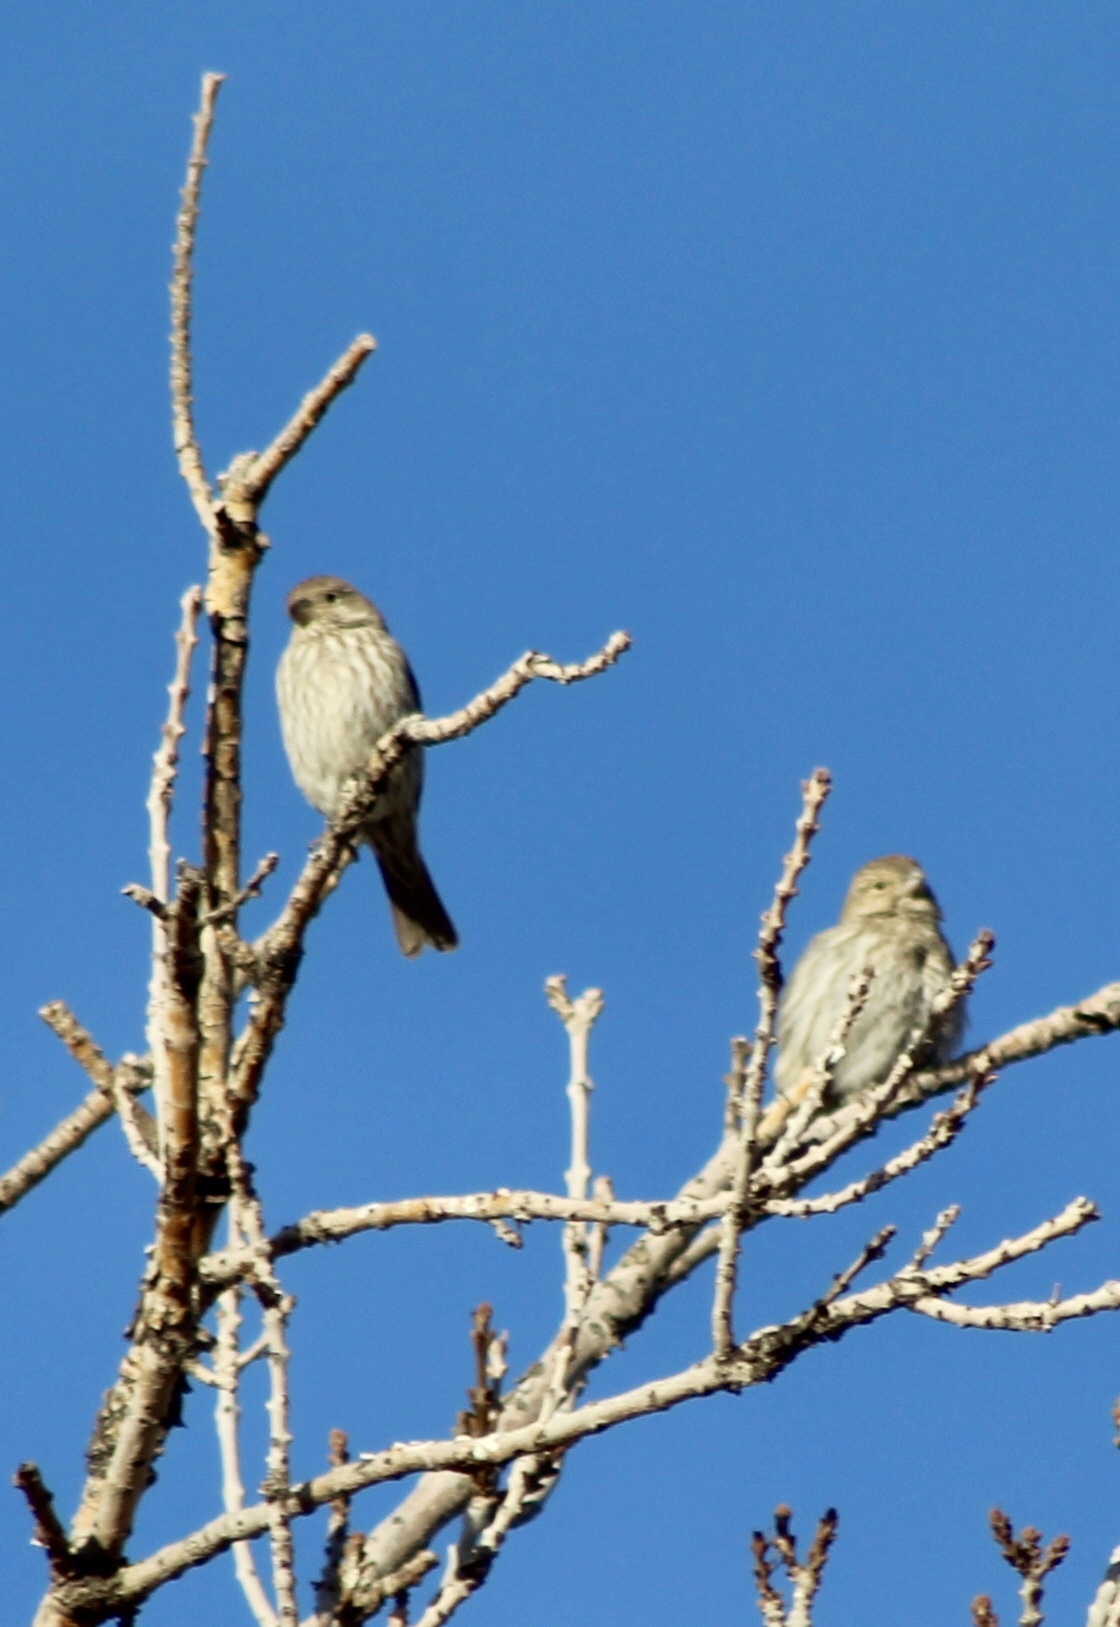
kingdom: Animalia
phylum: Chordata
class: Aves
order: Passeriformes
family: Fringillidae
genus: Haemorhous
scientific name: Haemorhous mexicanus
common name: House finch
